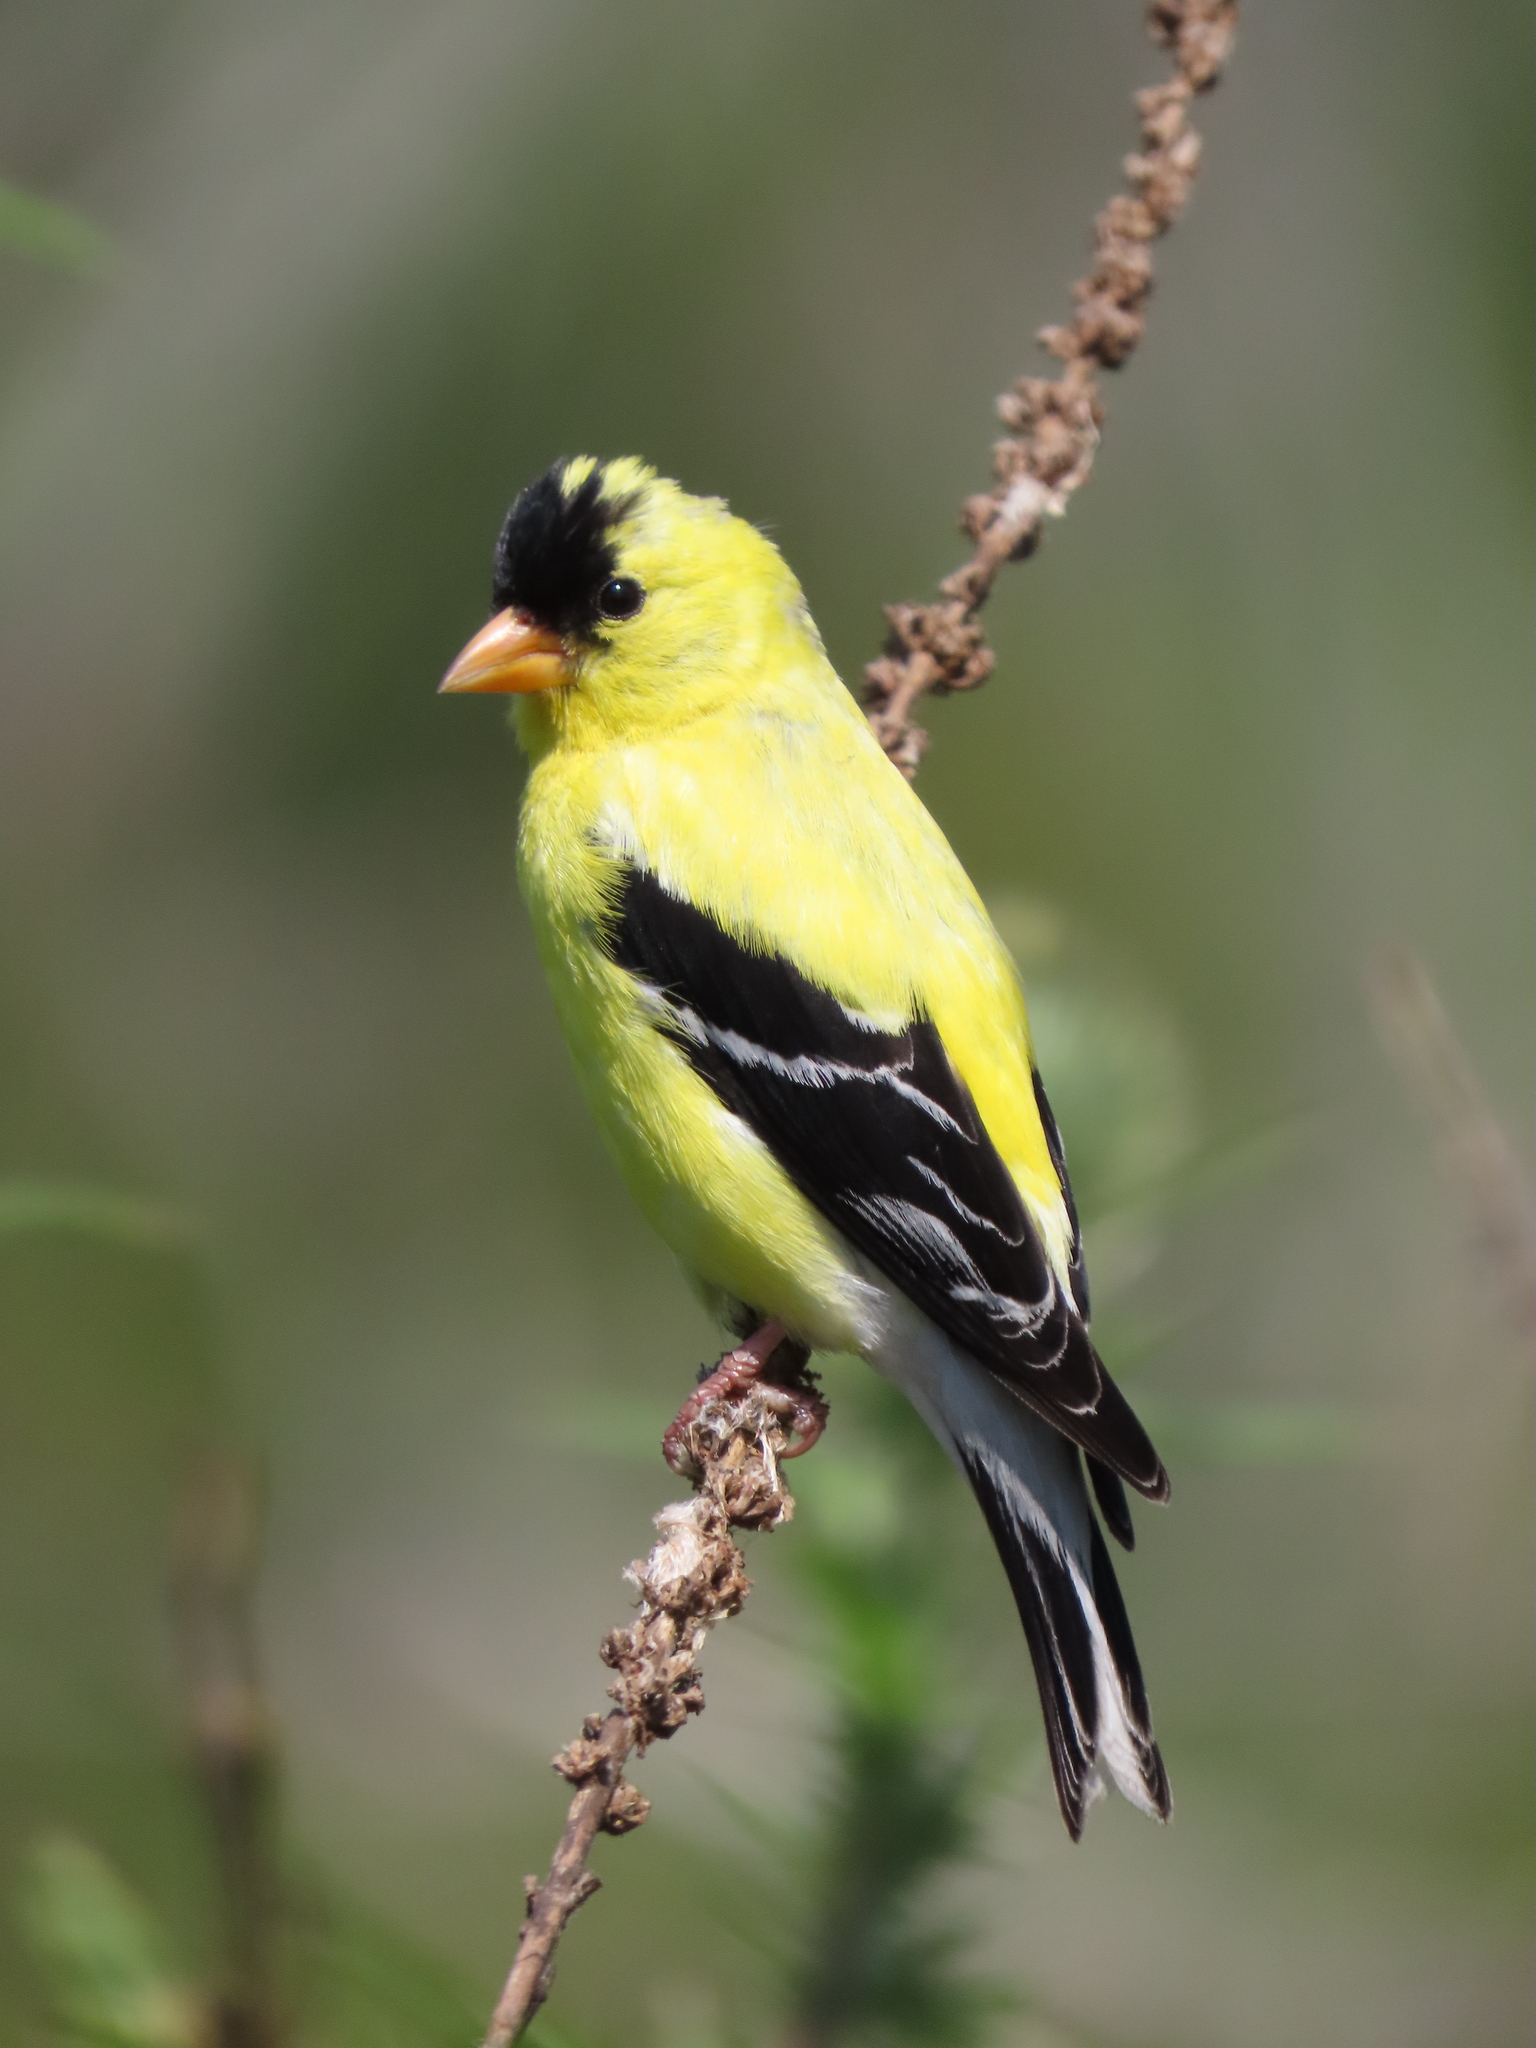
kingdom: Animalia
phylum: Chordata
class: Aves
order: Passeriformes
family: Fringillidae
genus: Spinus
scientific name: Spinus tristis
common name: American goldfinch
